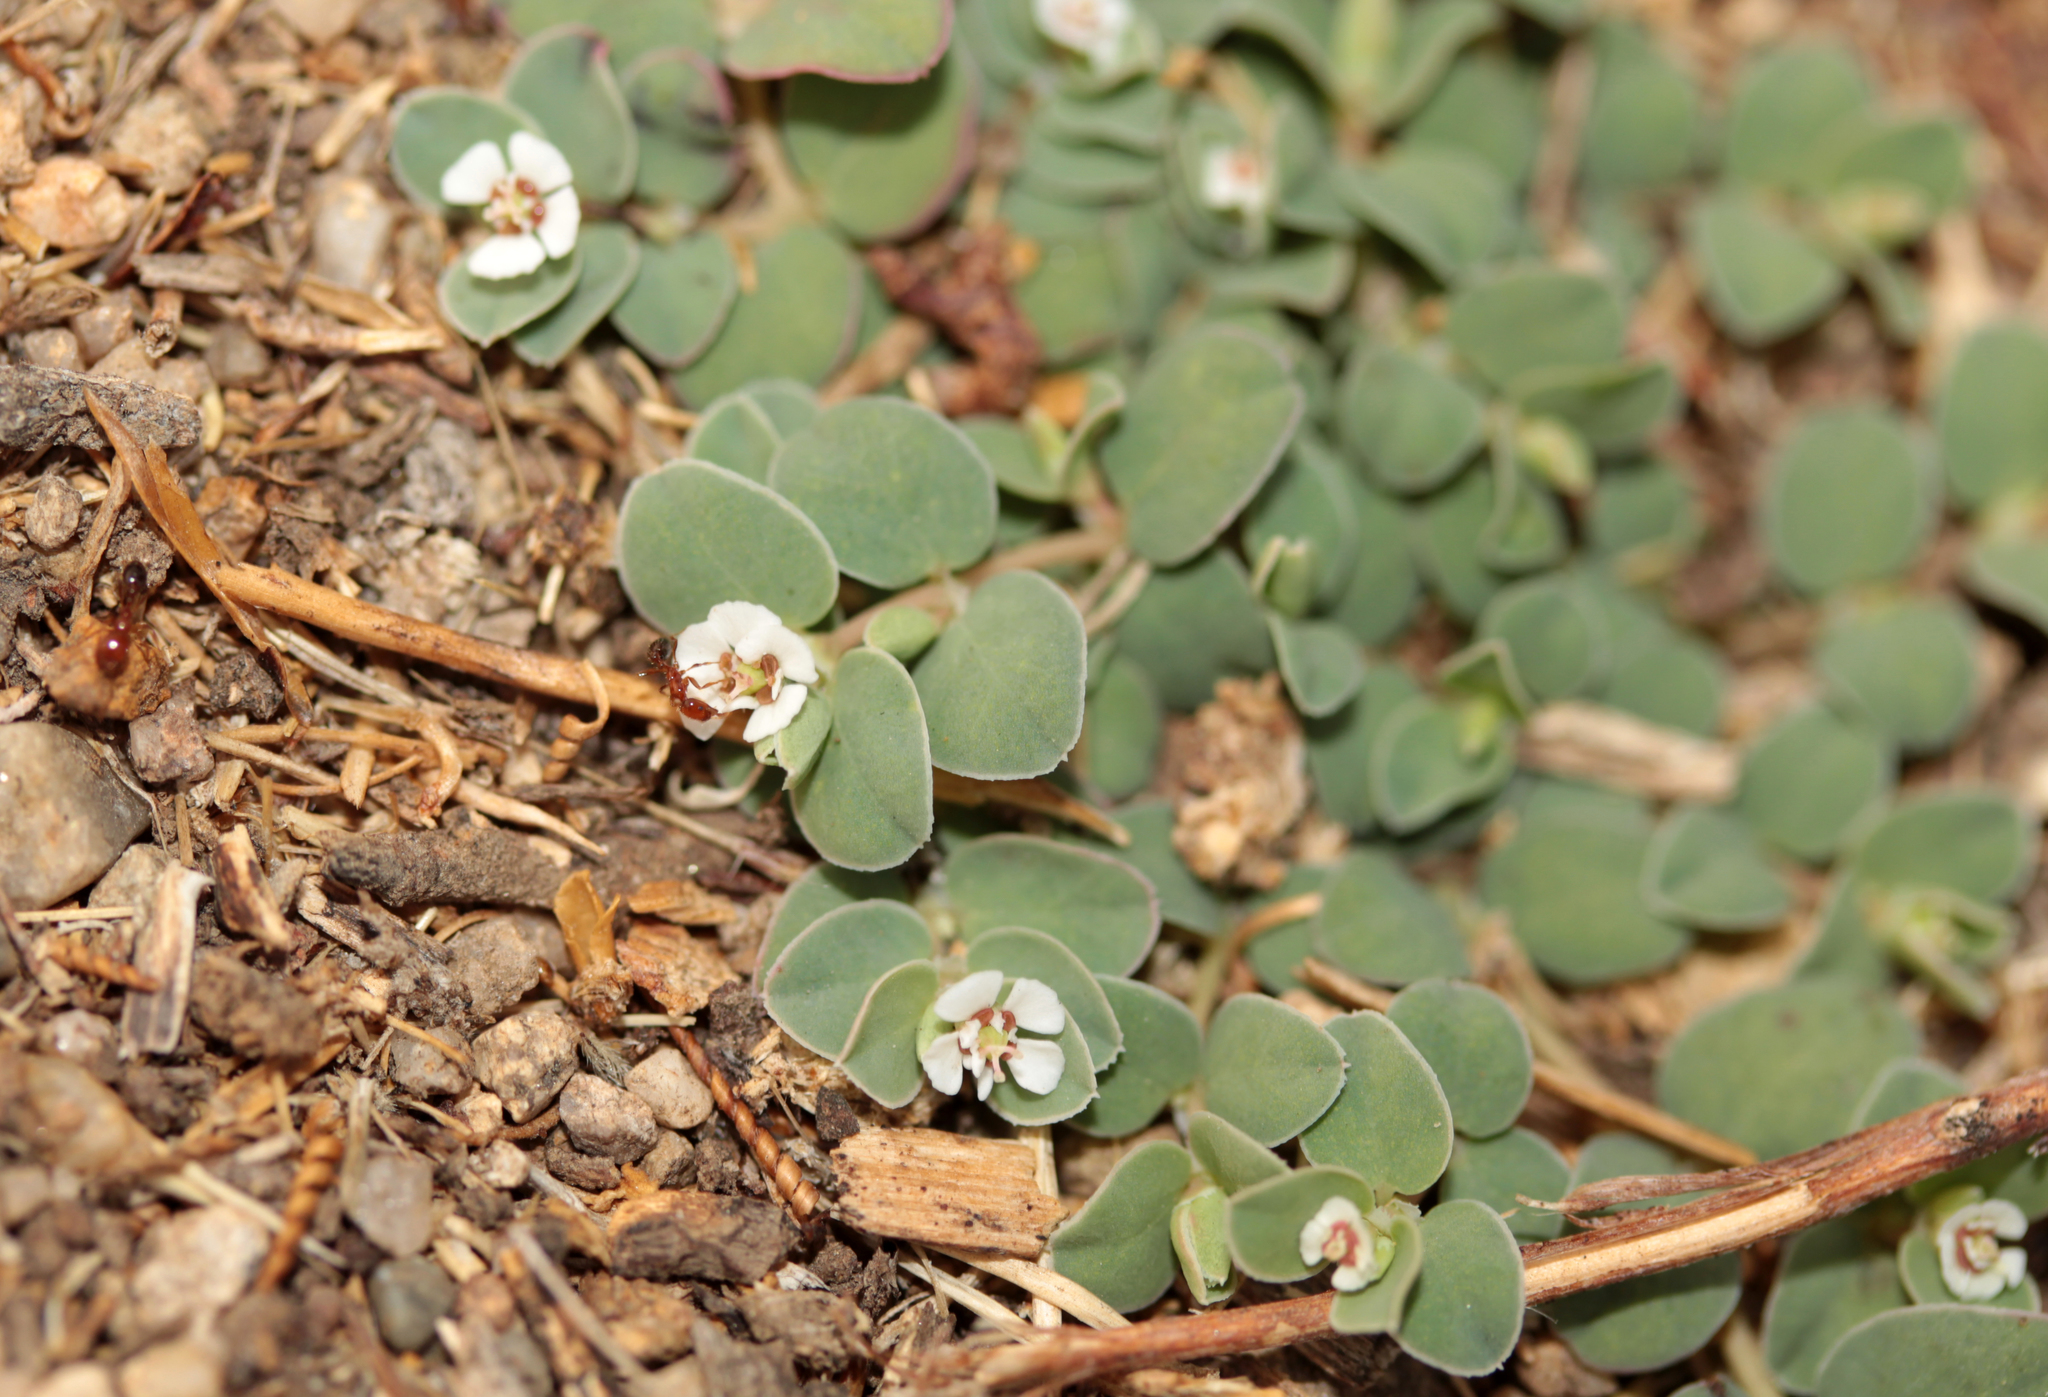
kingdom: Plantae
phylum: Tracheophyta
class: Magnoliopsida
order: Malpighiales
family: Euphorbiaceae
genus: Euphorbia
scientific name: Euphorbia albomarginata
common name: Whitemargin sandmat
